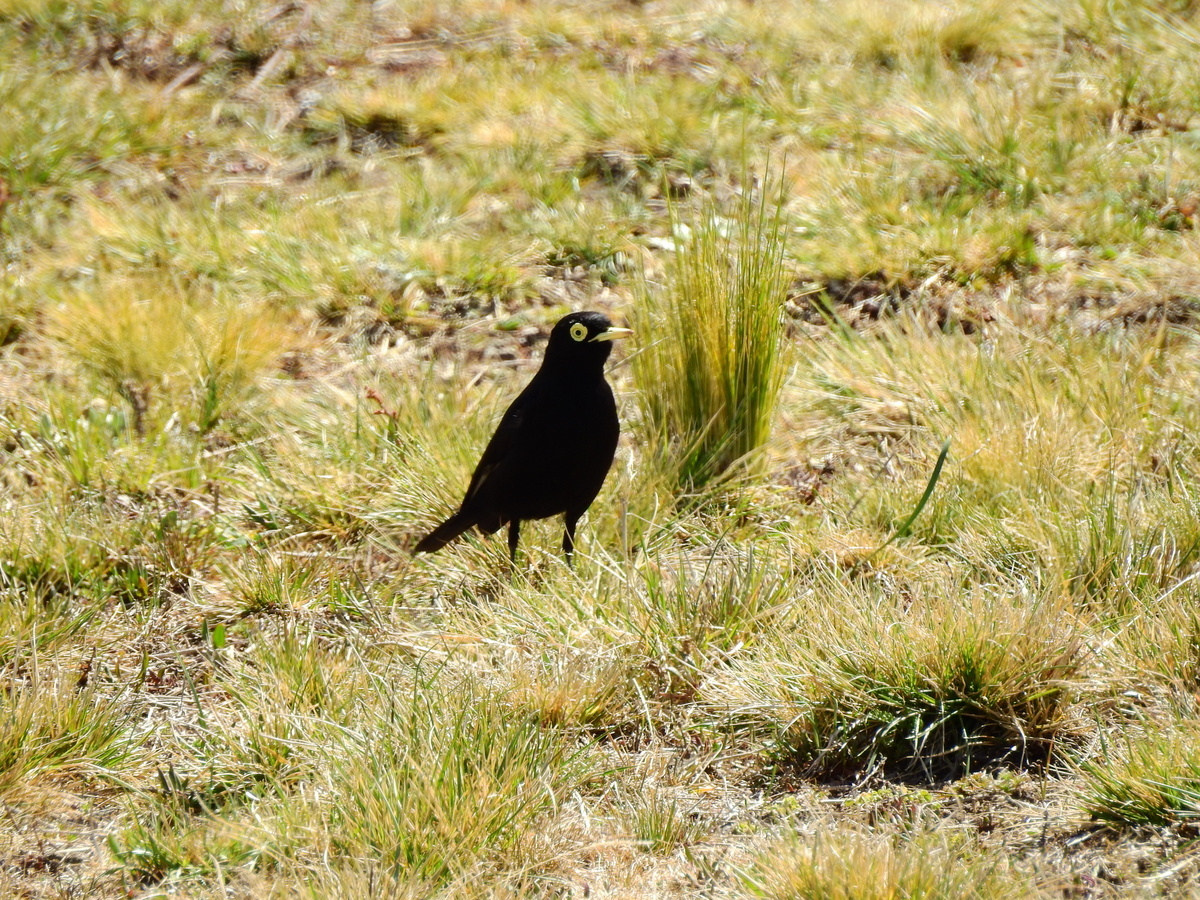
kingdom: Animalia
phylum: Chordata
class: Aves
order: Passeriformes
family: Tyrannidae
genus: Hymenops
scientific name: Hymenops perspicillatus
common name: Spectacled tyrant
